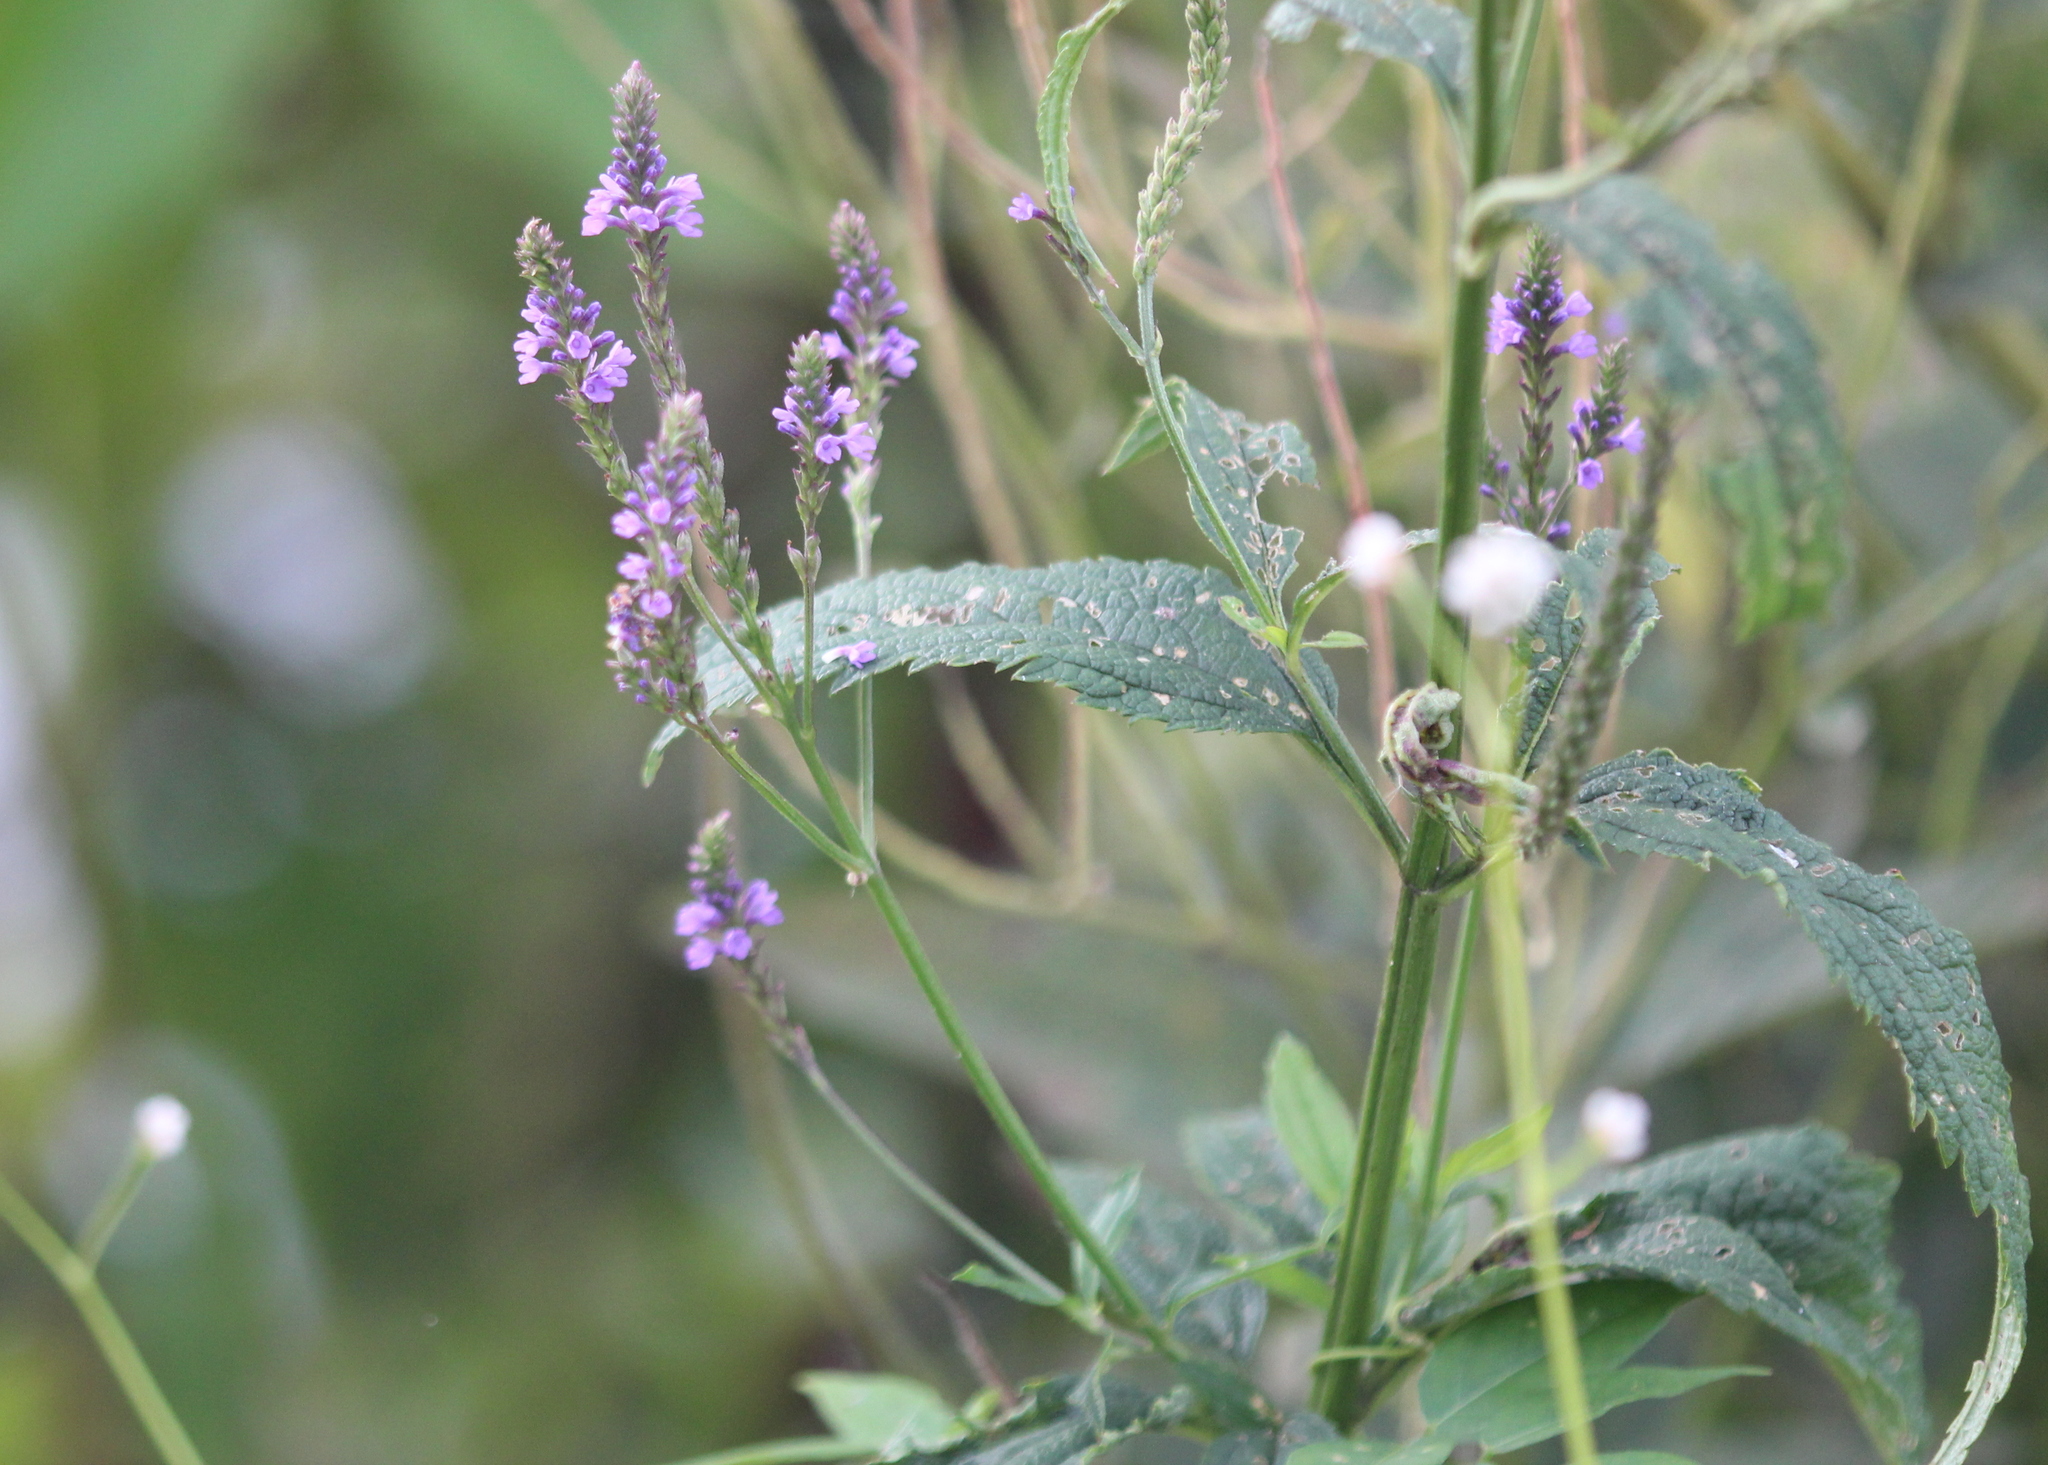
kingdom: Plantae
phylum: Tracheophyta
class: Magnoliopsida
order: Lamiales
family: Verbenaceae
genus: Verbena
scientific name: Verbena hastata
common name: American blue vervain
